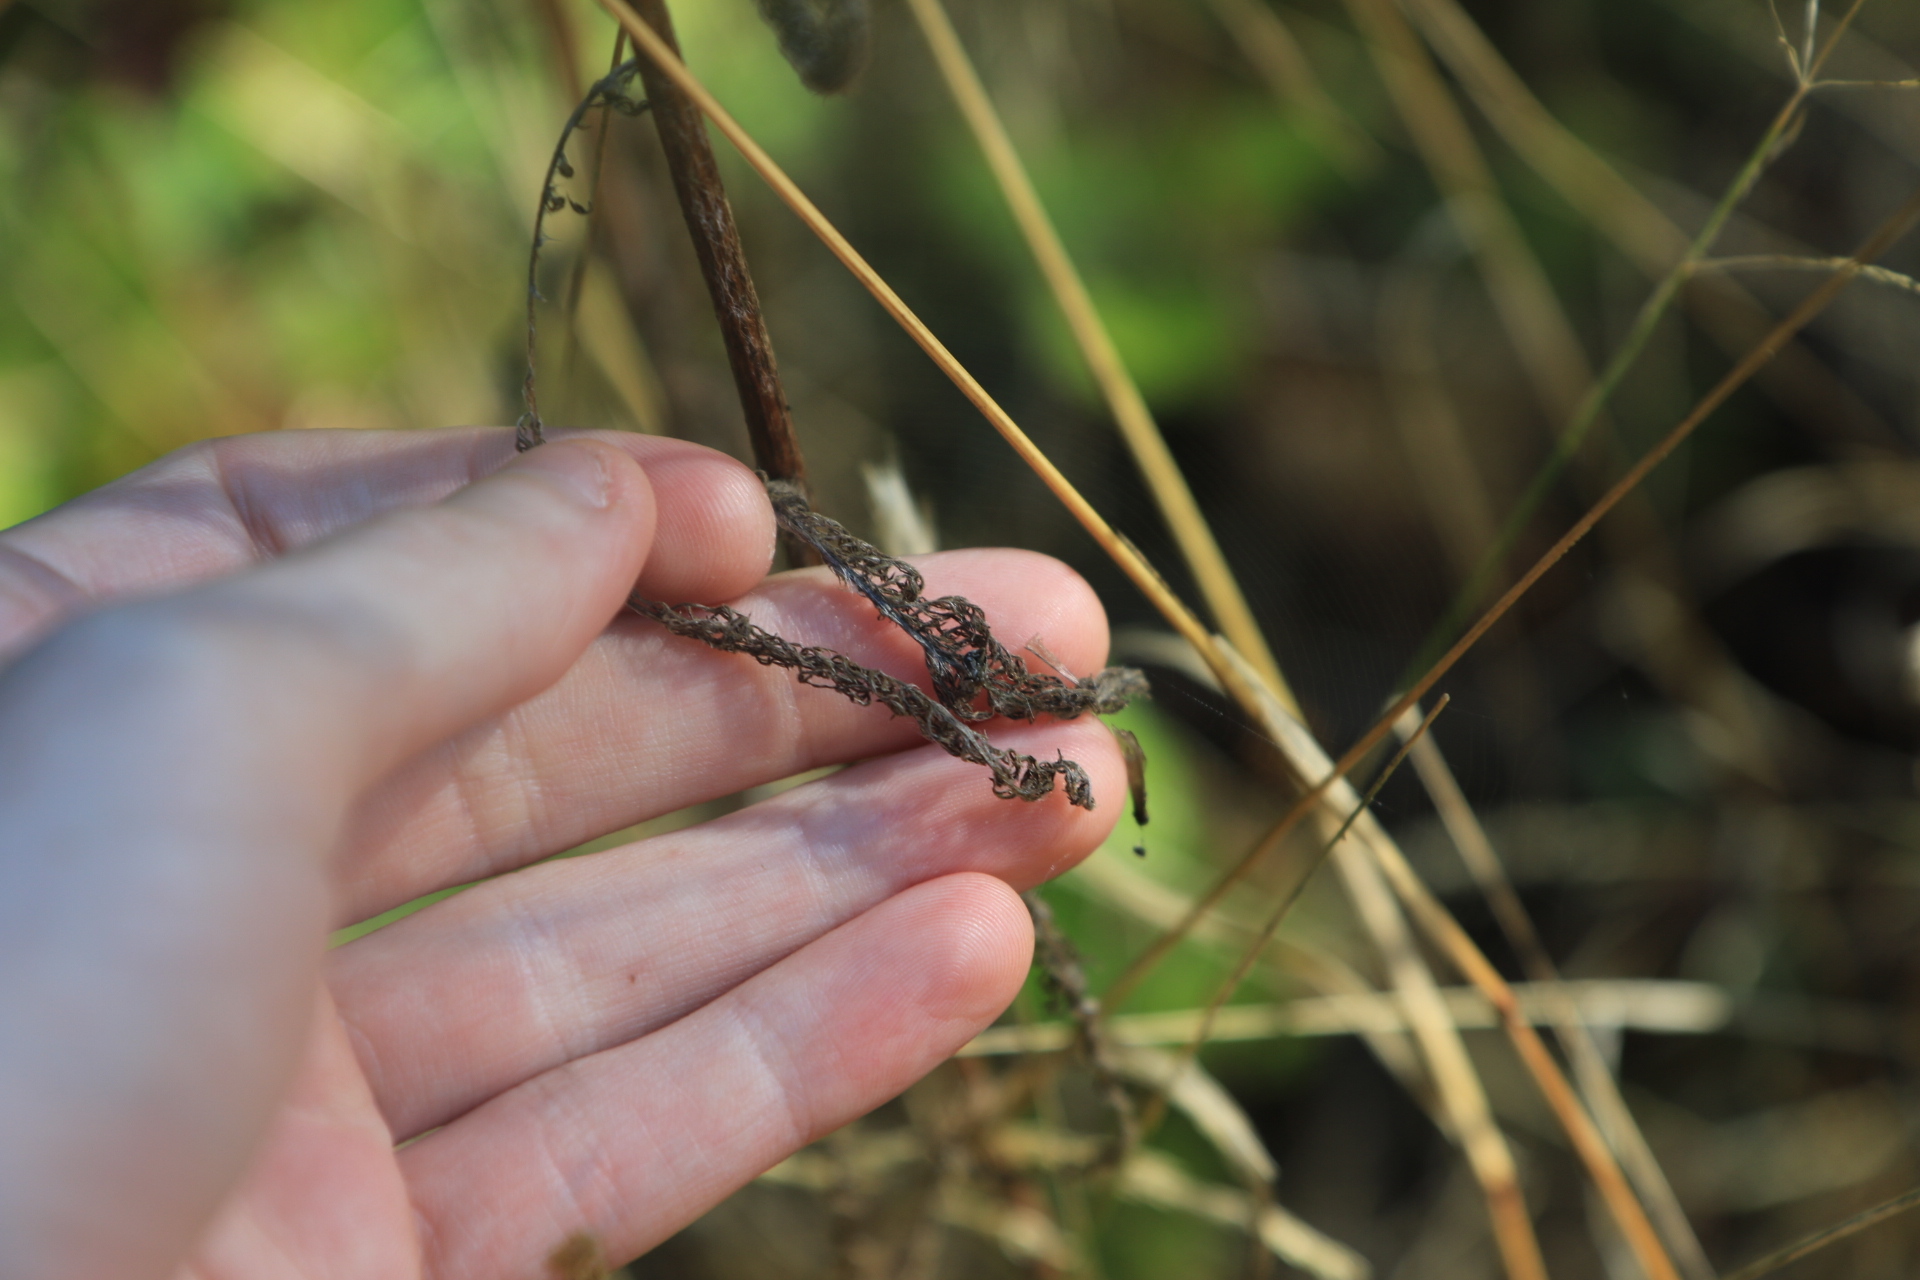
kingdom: Plantae
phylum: Tracheophyta
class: Magnoliopsida
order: Asterales
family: Asteraceae
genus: Achillea
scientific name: Achillea millefolium
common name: Yarrow
